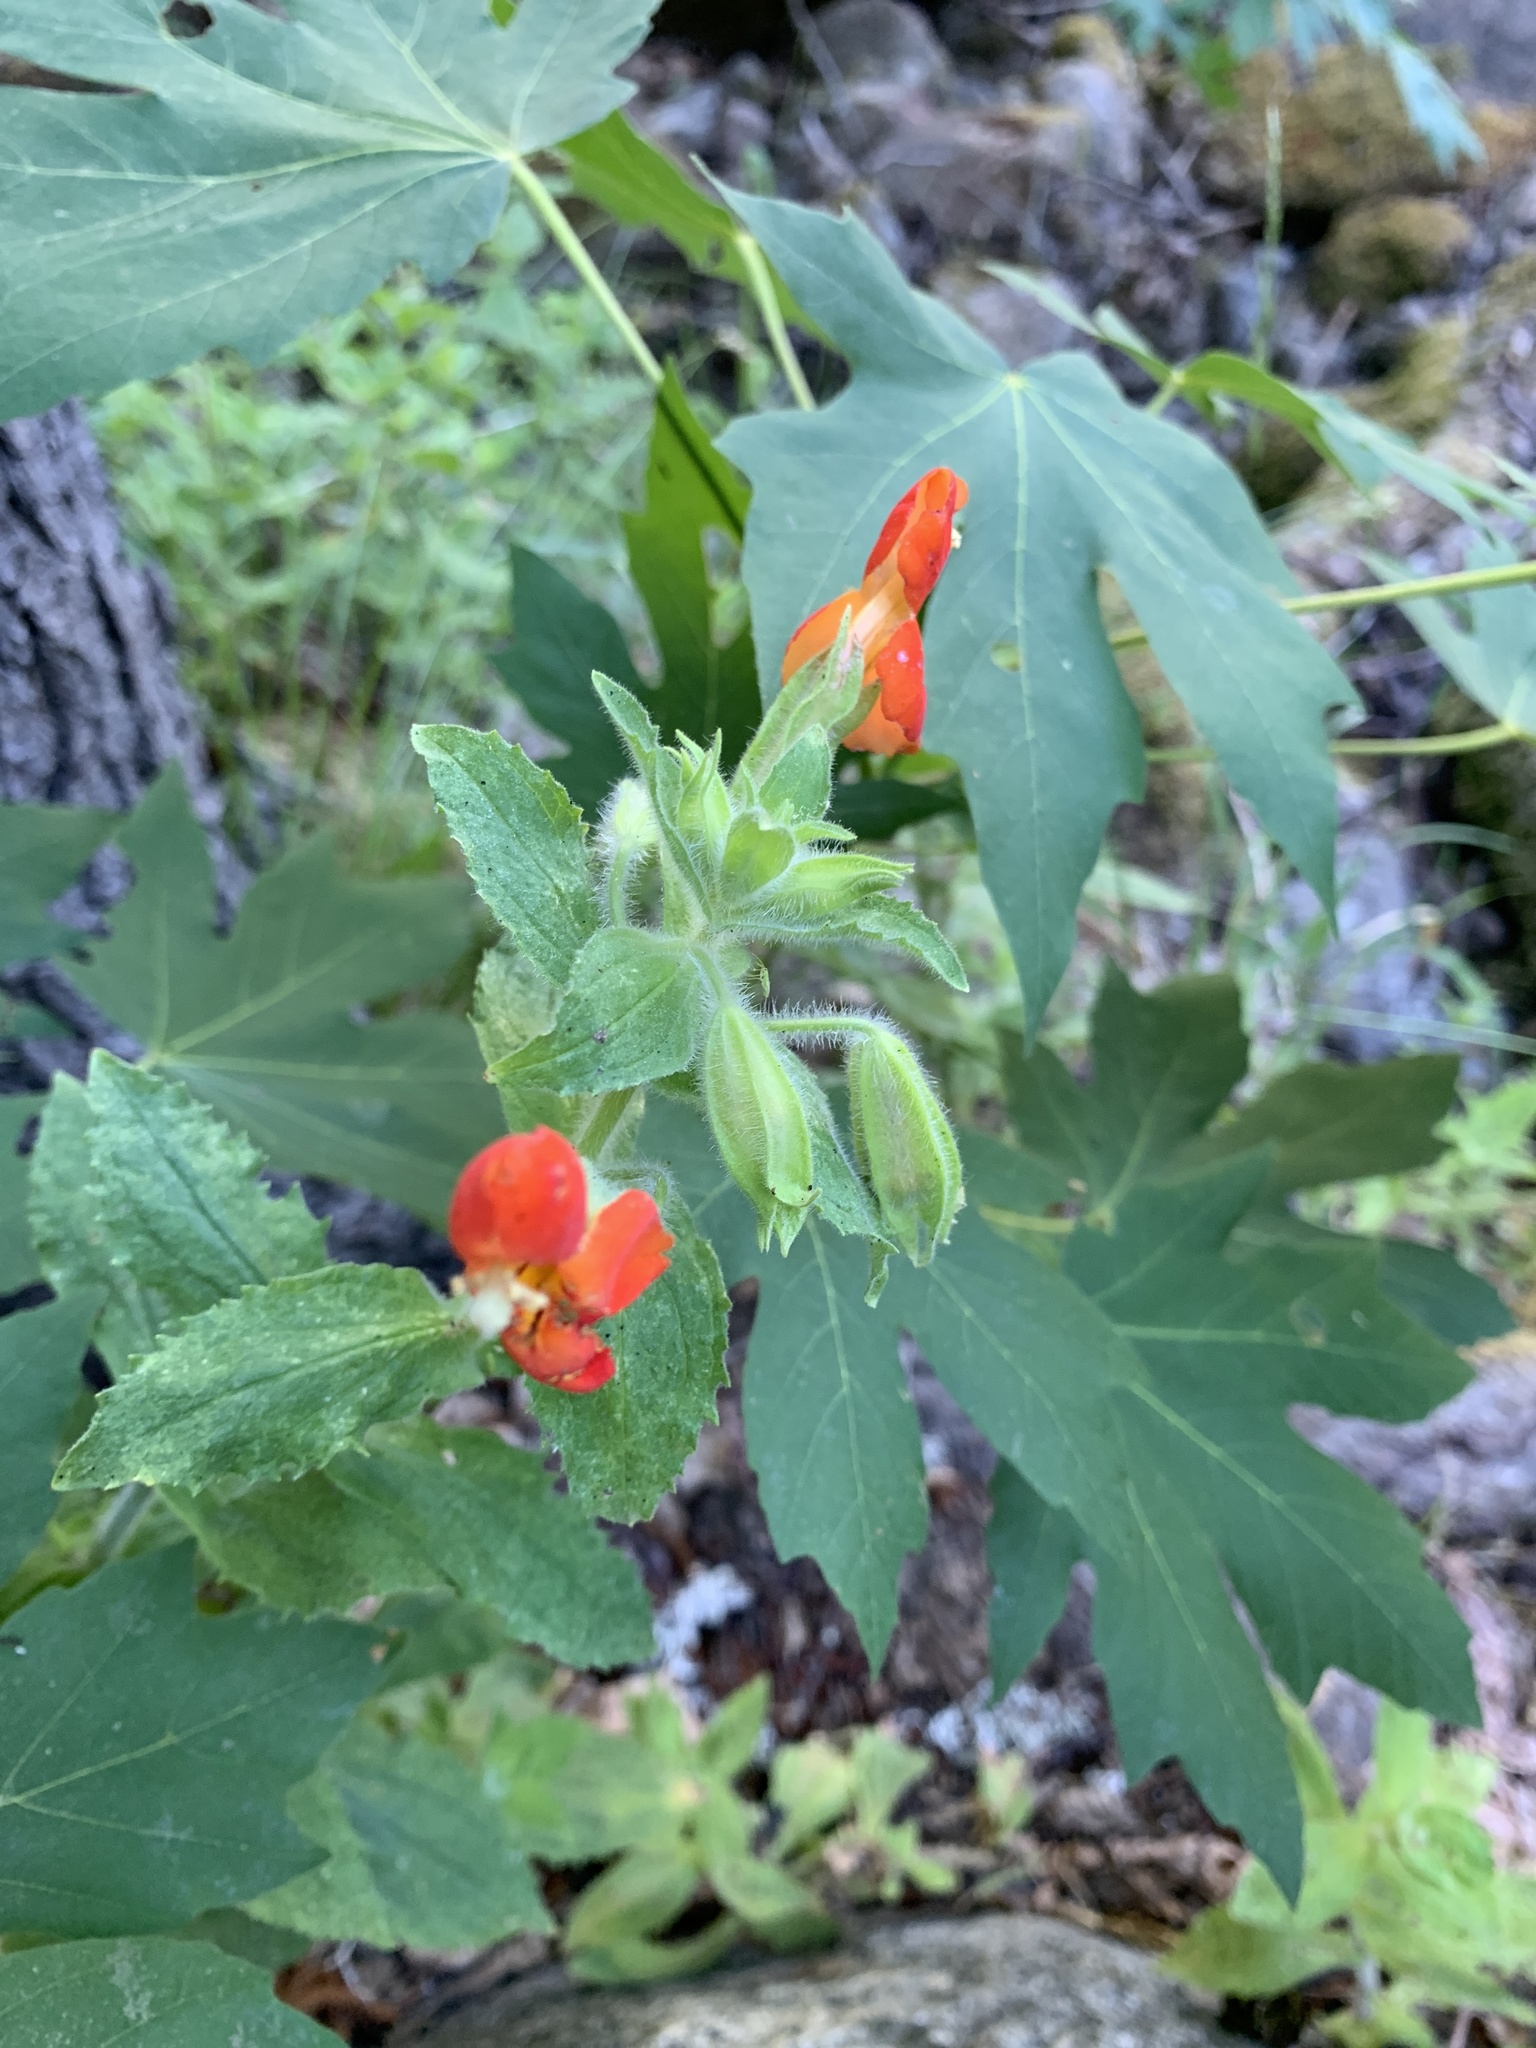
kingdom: Plantae
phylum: Tracheophyta
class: Magnoliopsida
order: Lamiales
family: Phrymaceae
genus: Erythranthe
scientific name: Erythranthe cardinalis
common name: Scarlet monkey-flower
